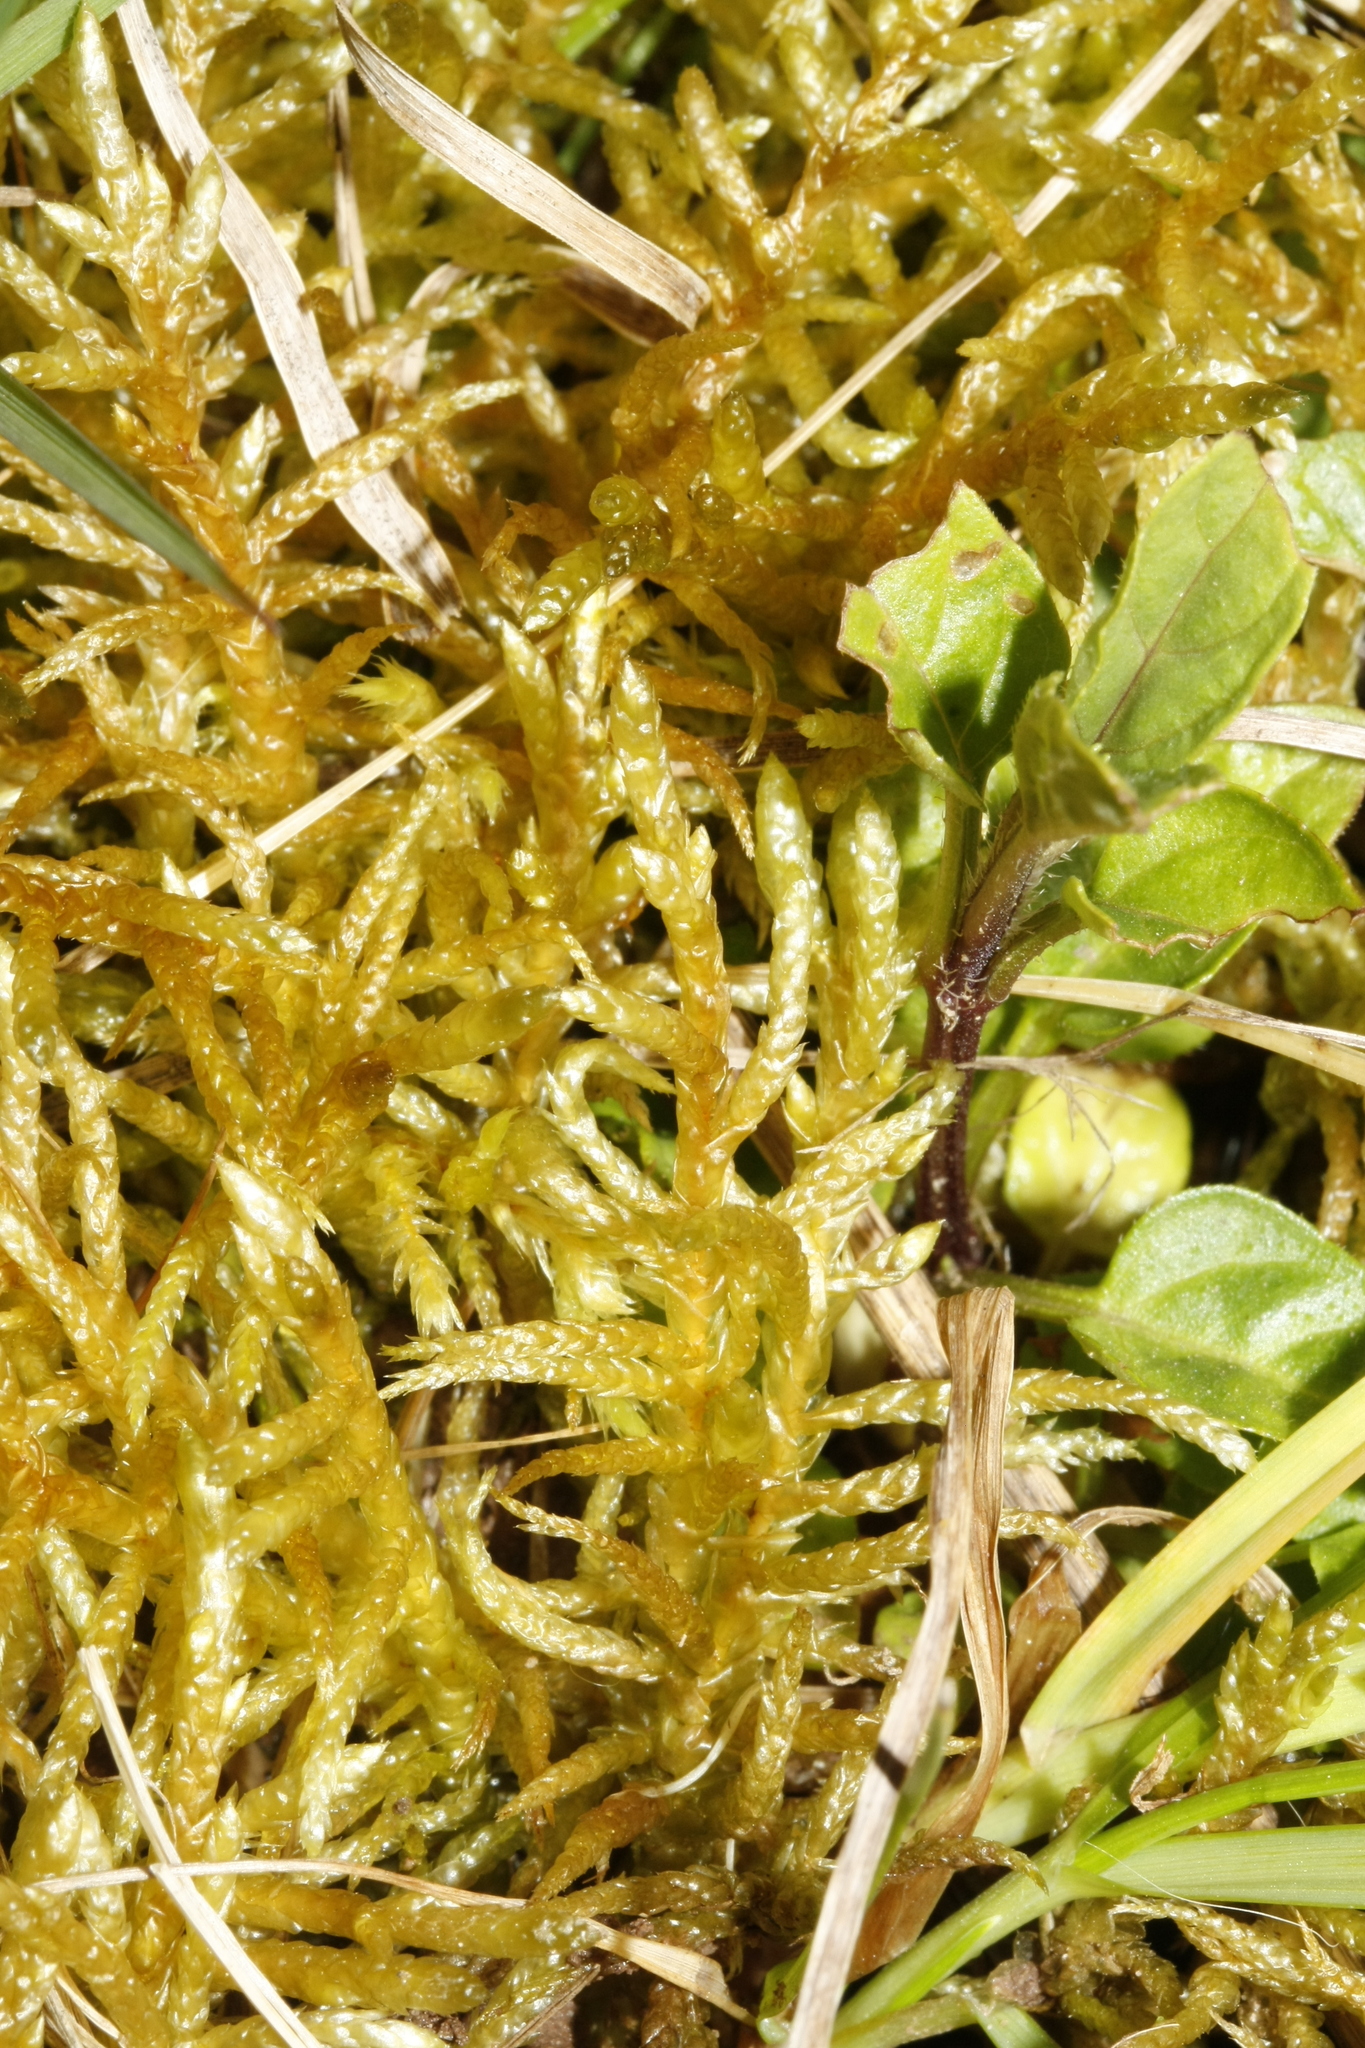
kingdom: Plantae
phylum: Bryophyta
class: Bryopsida
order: Hypnales
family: Brachytheciaceae
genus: Pseudoscleropodium
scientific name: Pseudoscleropodium purum
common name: Neat feather-moss
